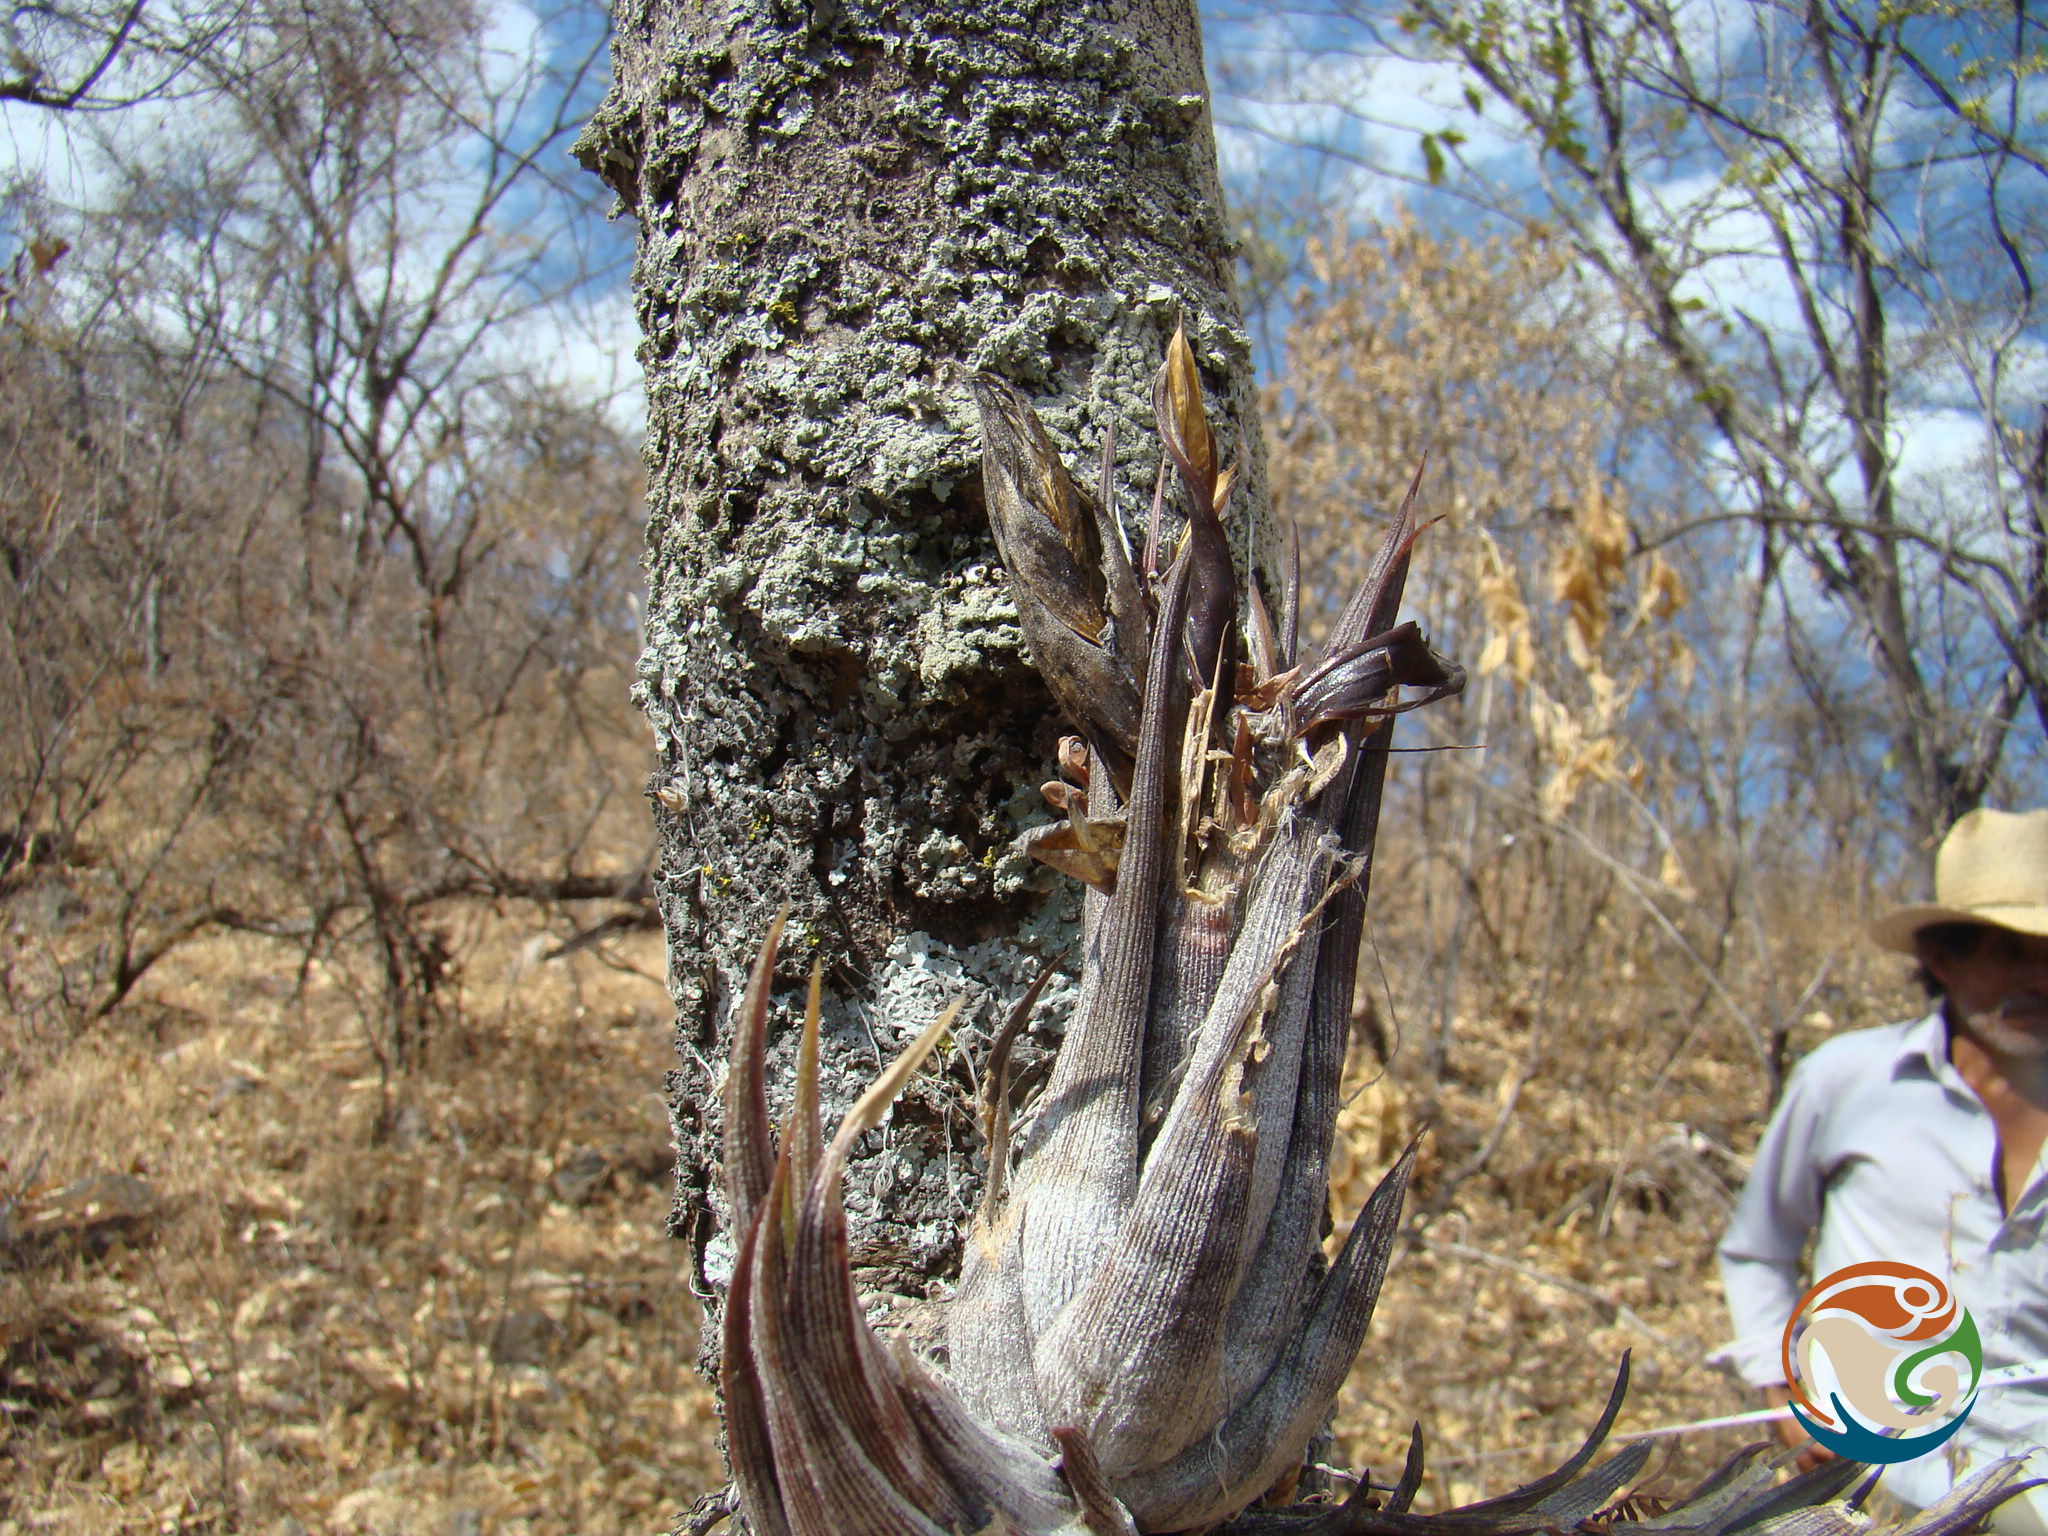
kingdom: Plantae
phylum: Tracheophyta
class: Liliopsida
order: Poales
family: Bromeliaceae
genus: Tillandsia
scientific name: Tillandsia circinnatioides
